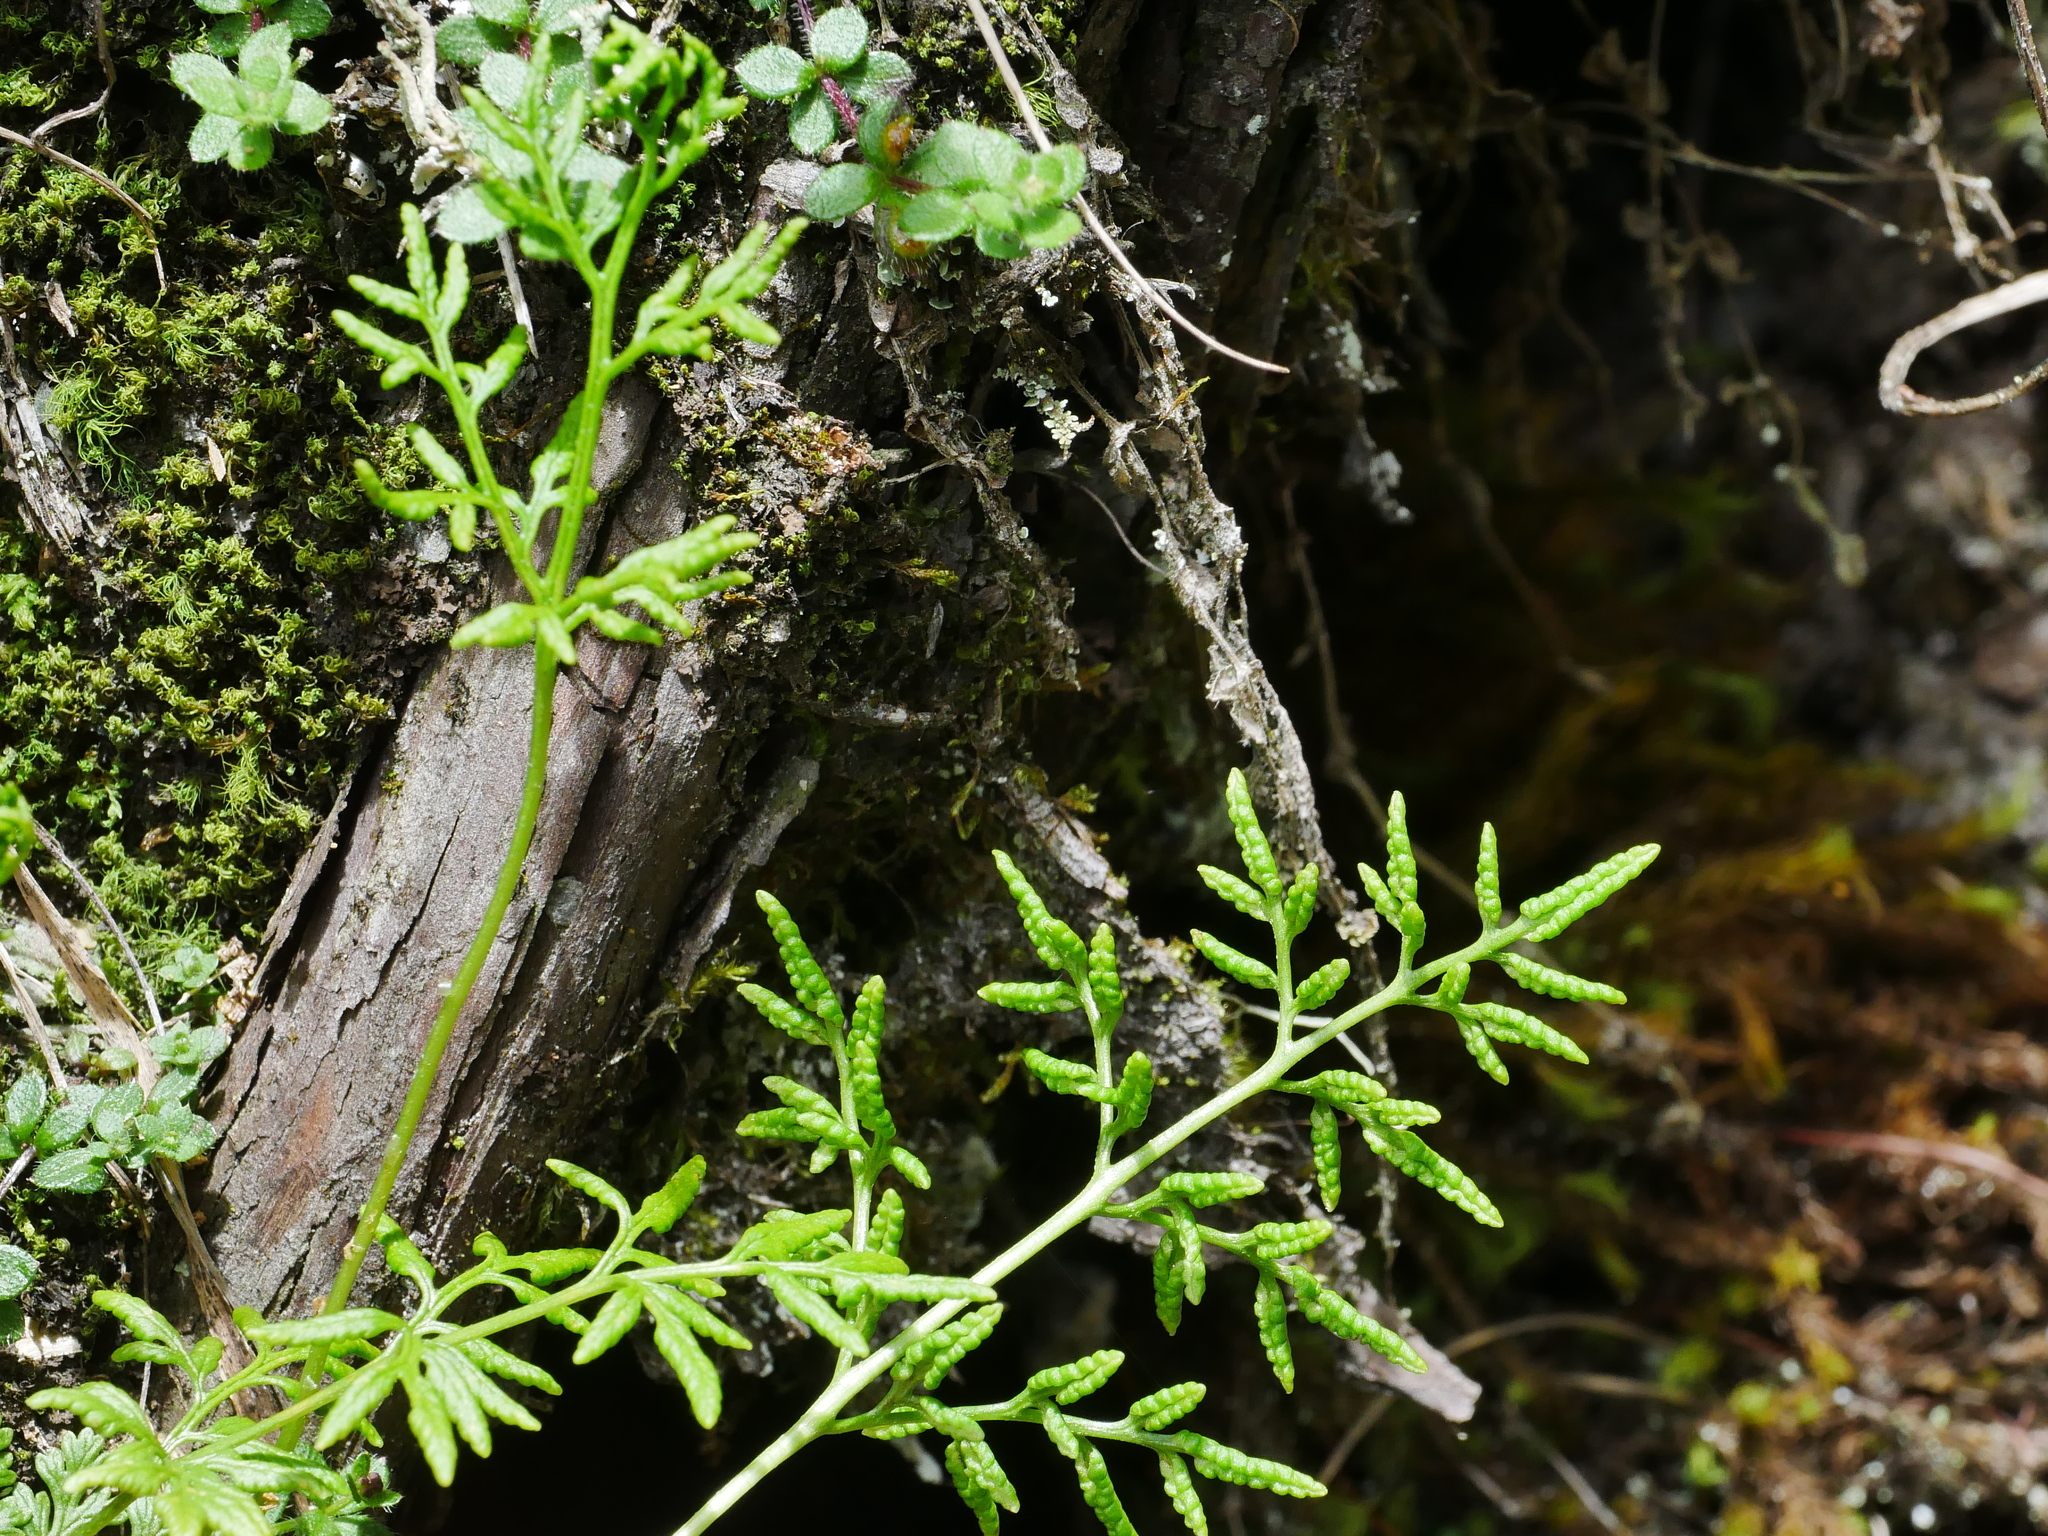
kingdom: Plantae
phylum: Tracheophyta
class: Polypodiopsida
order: Polypodiales
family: Pteridaceae
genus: Cryptogramma
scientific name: Cryptogramma brunoniana
